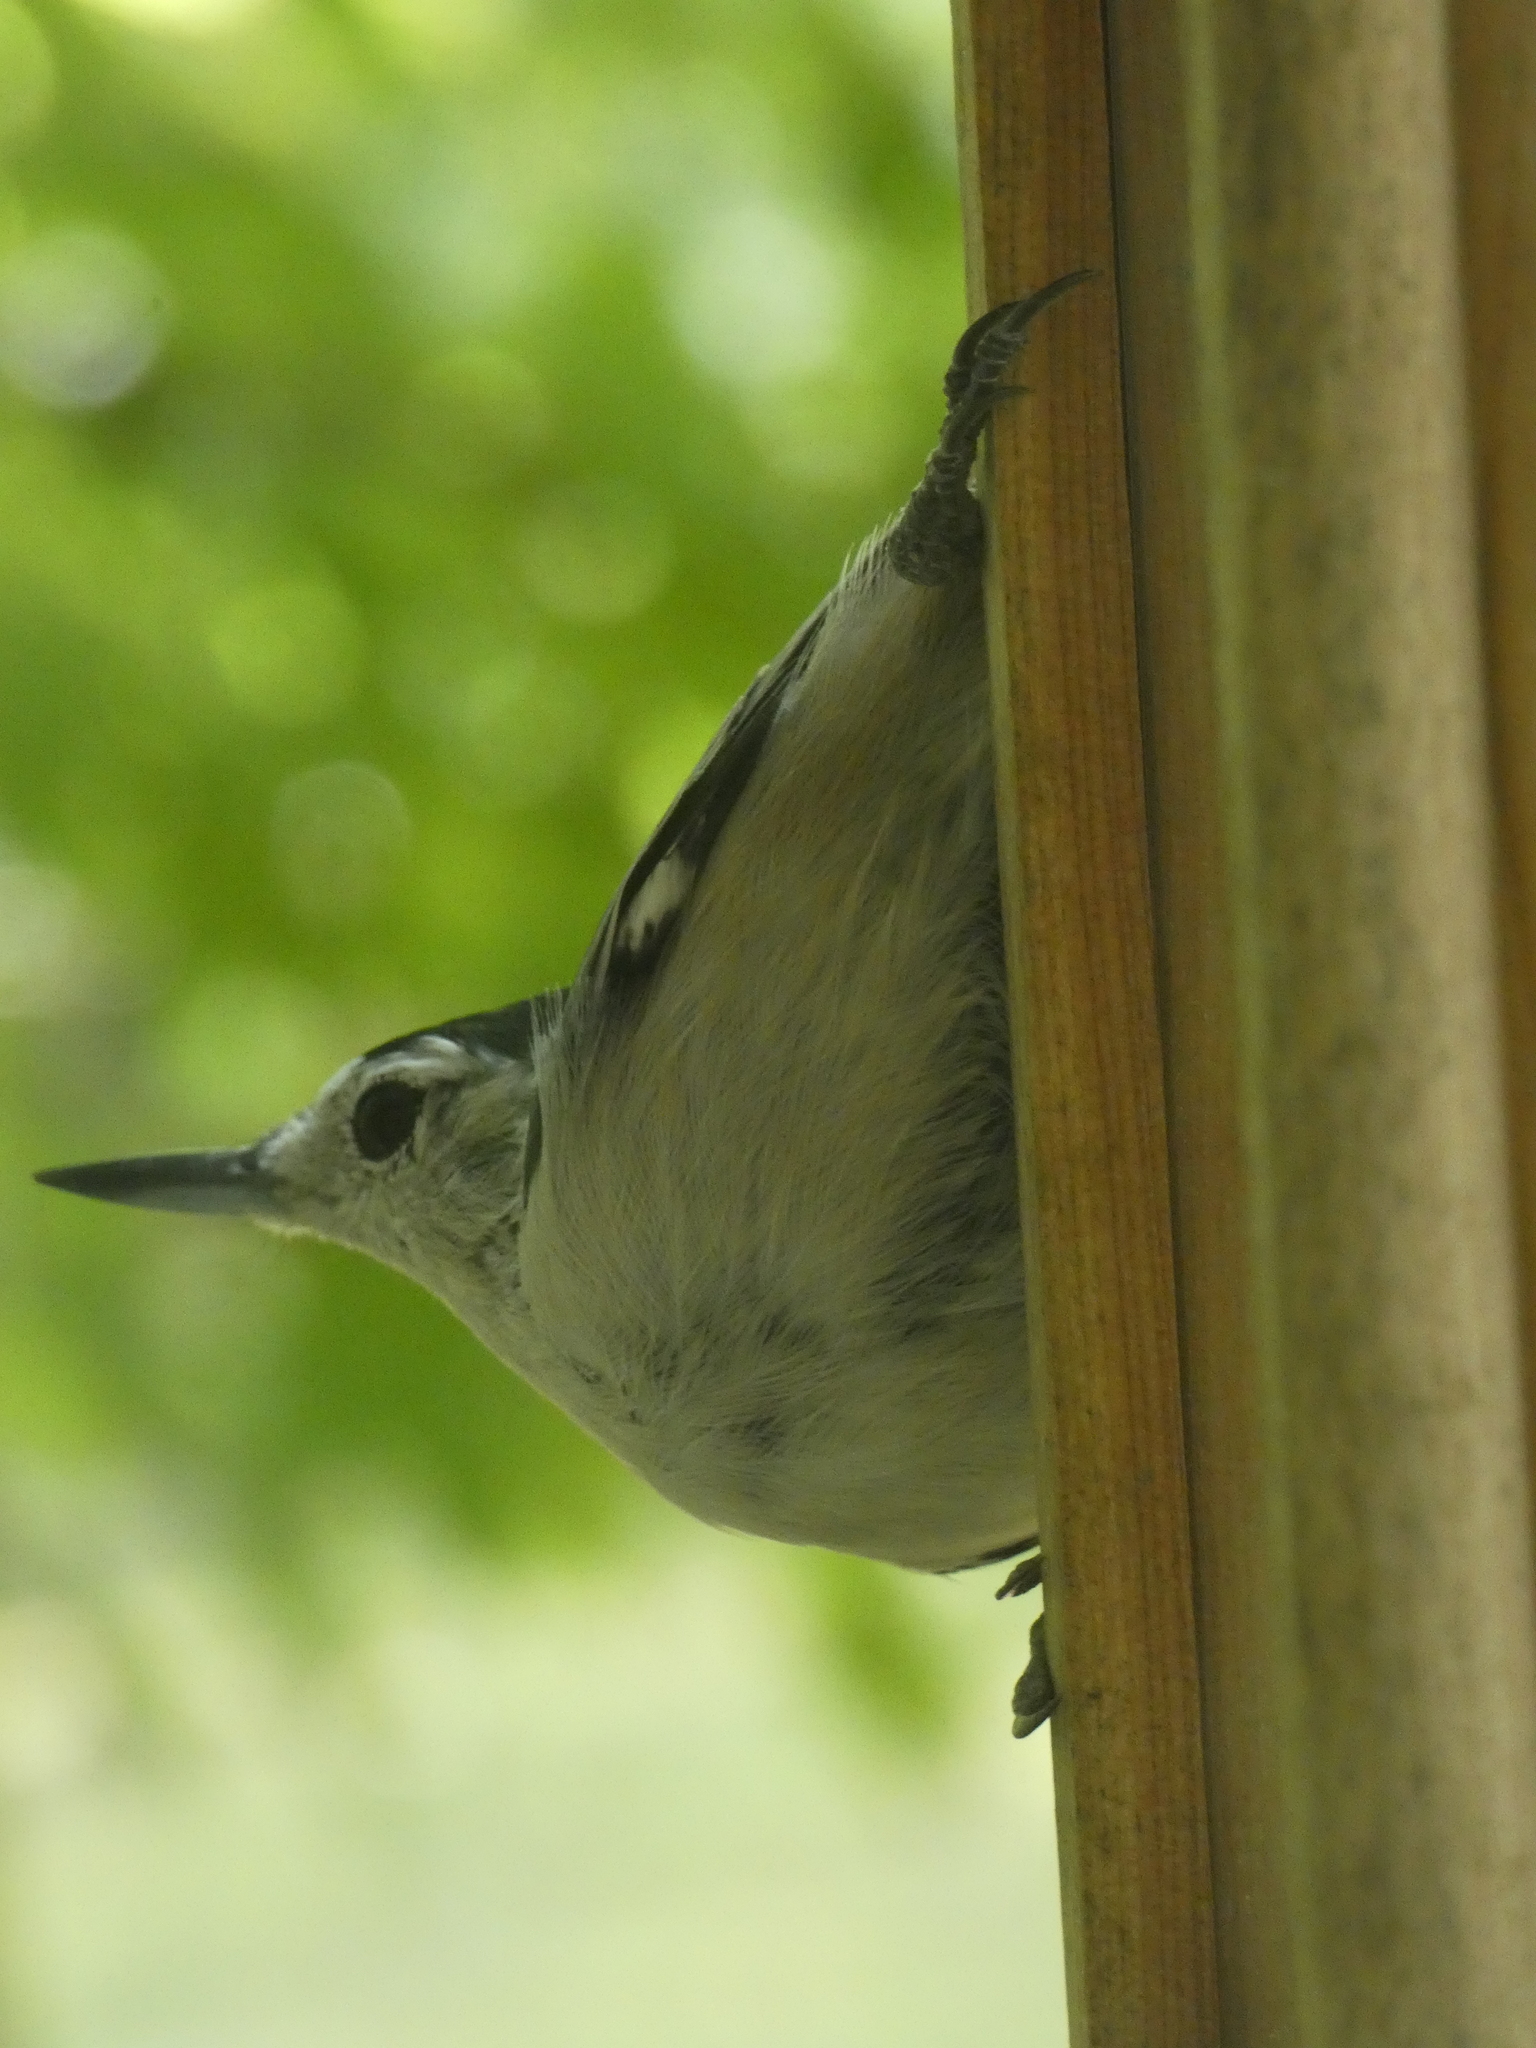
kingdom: Animalia
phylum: Chordata
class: Aves
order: Passeriformes
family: Sittidae
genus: Sitta
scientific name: Sitta carolinensis
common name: White-breasted nuthatch
